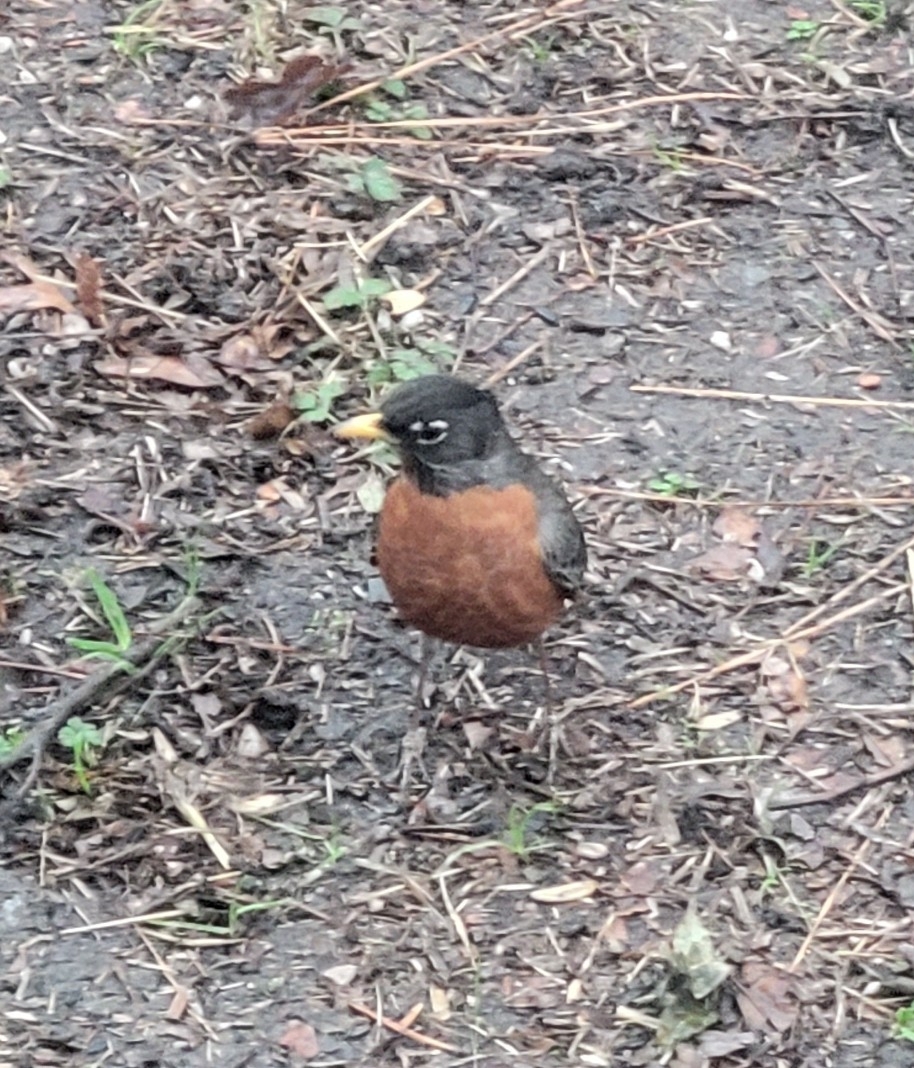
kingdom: Animalia
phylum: Chordata
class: Aves
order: Passeriformes
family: Turdidae
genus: Turdus
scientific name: Turdus migratorius
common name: American robin
